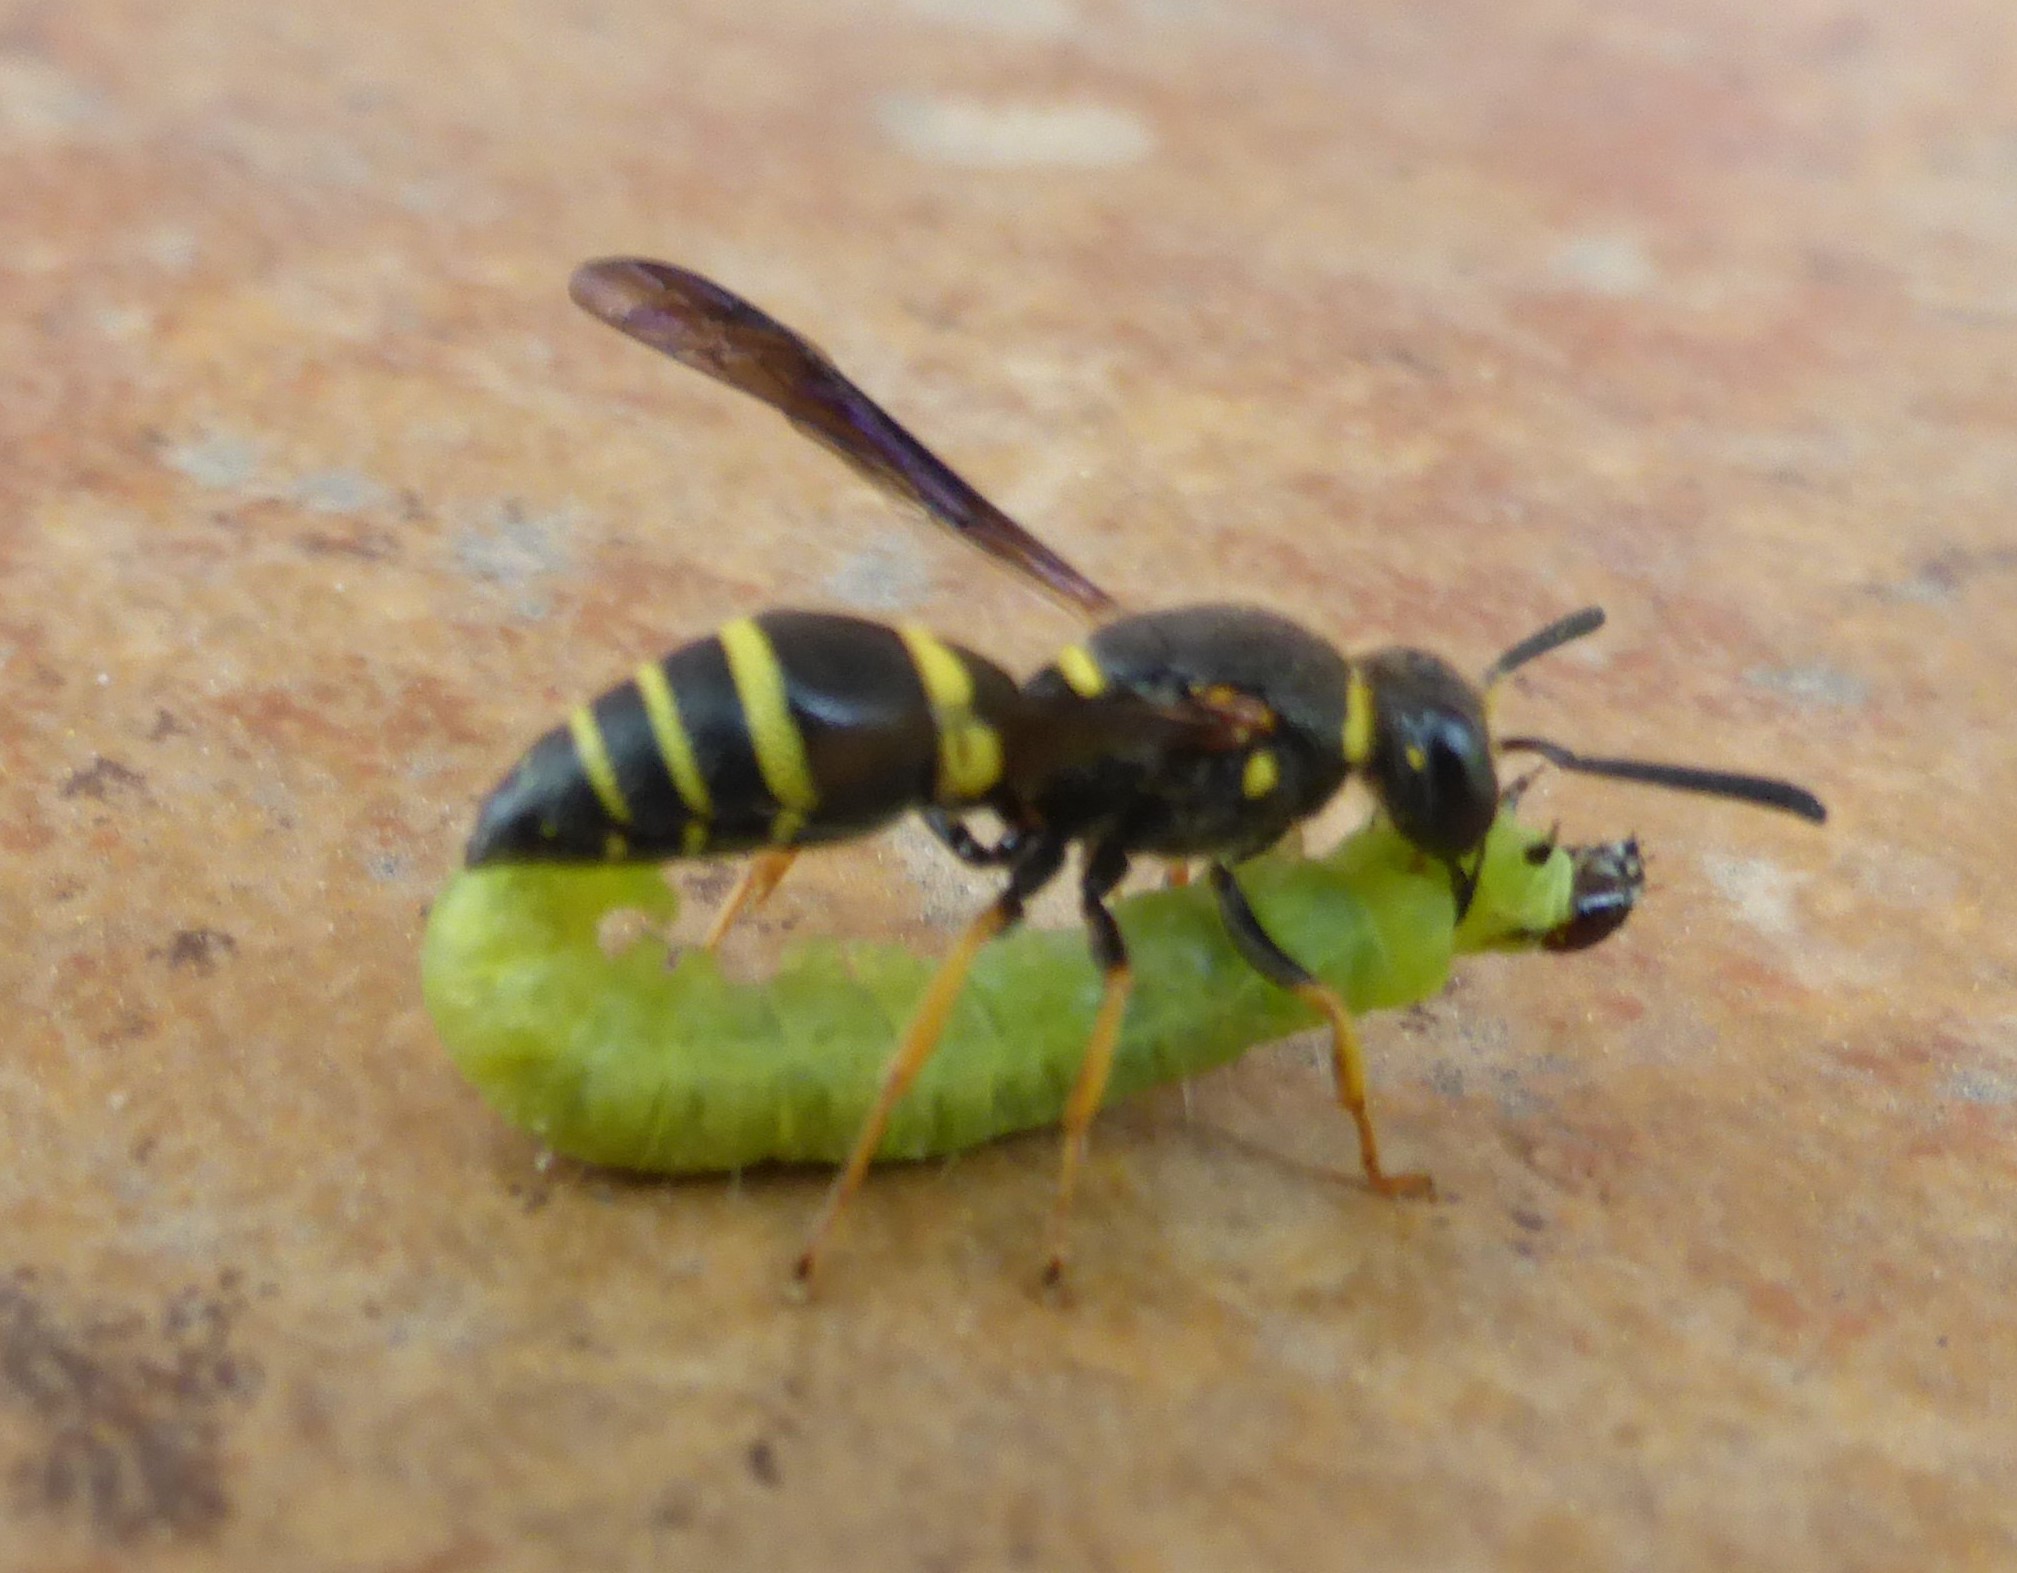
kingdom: Animalia
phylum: Arthropoda
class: Insecta
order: Hymenoptera
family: Eumenidae
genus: Euodynerus
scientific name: Euodynerus
